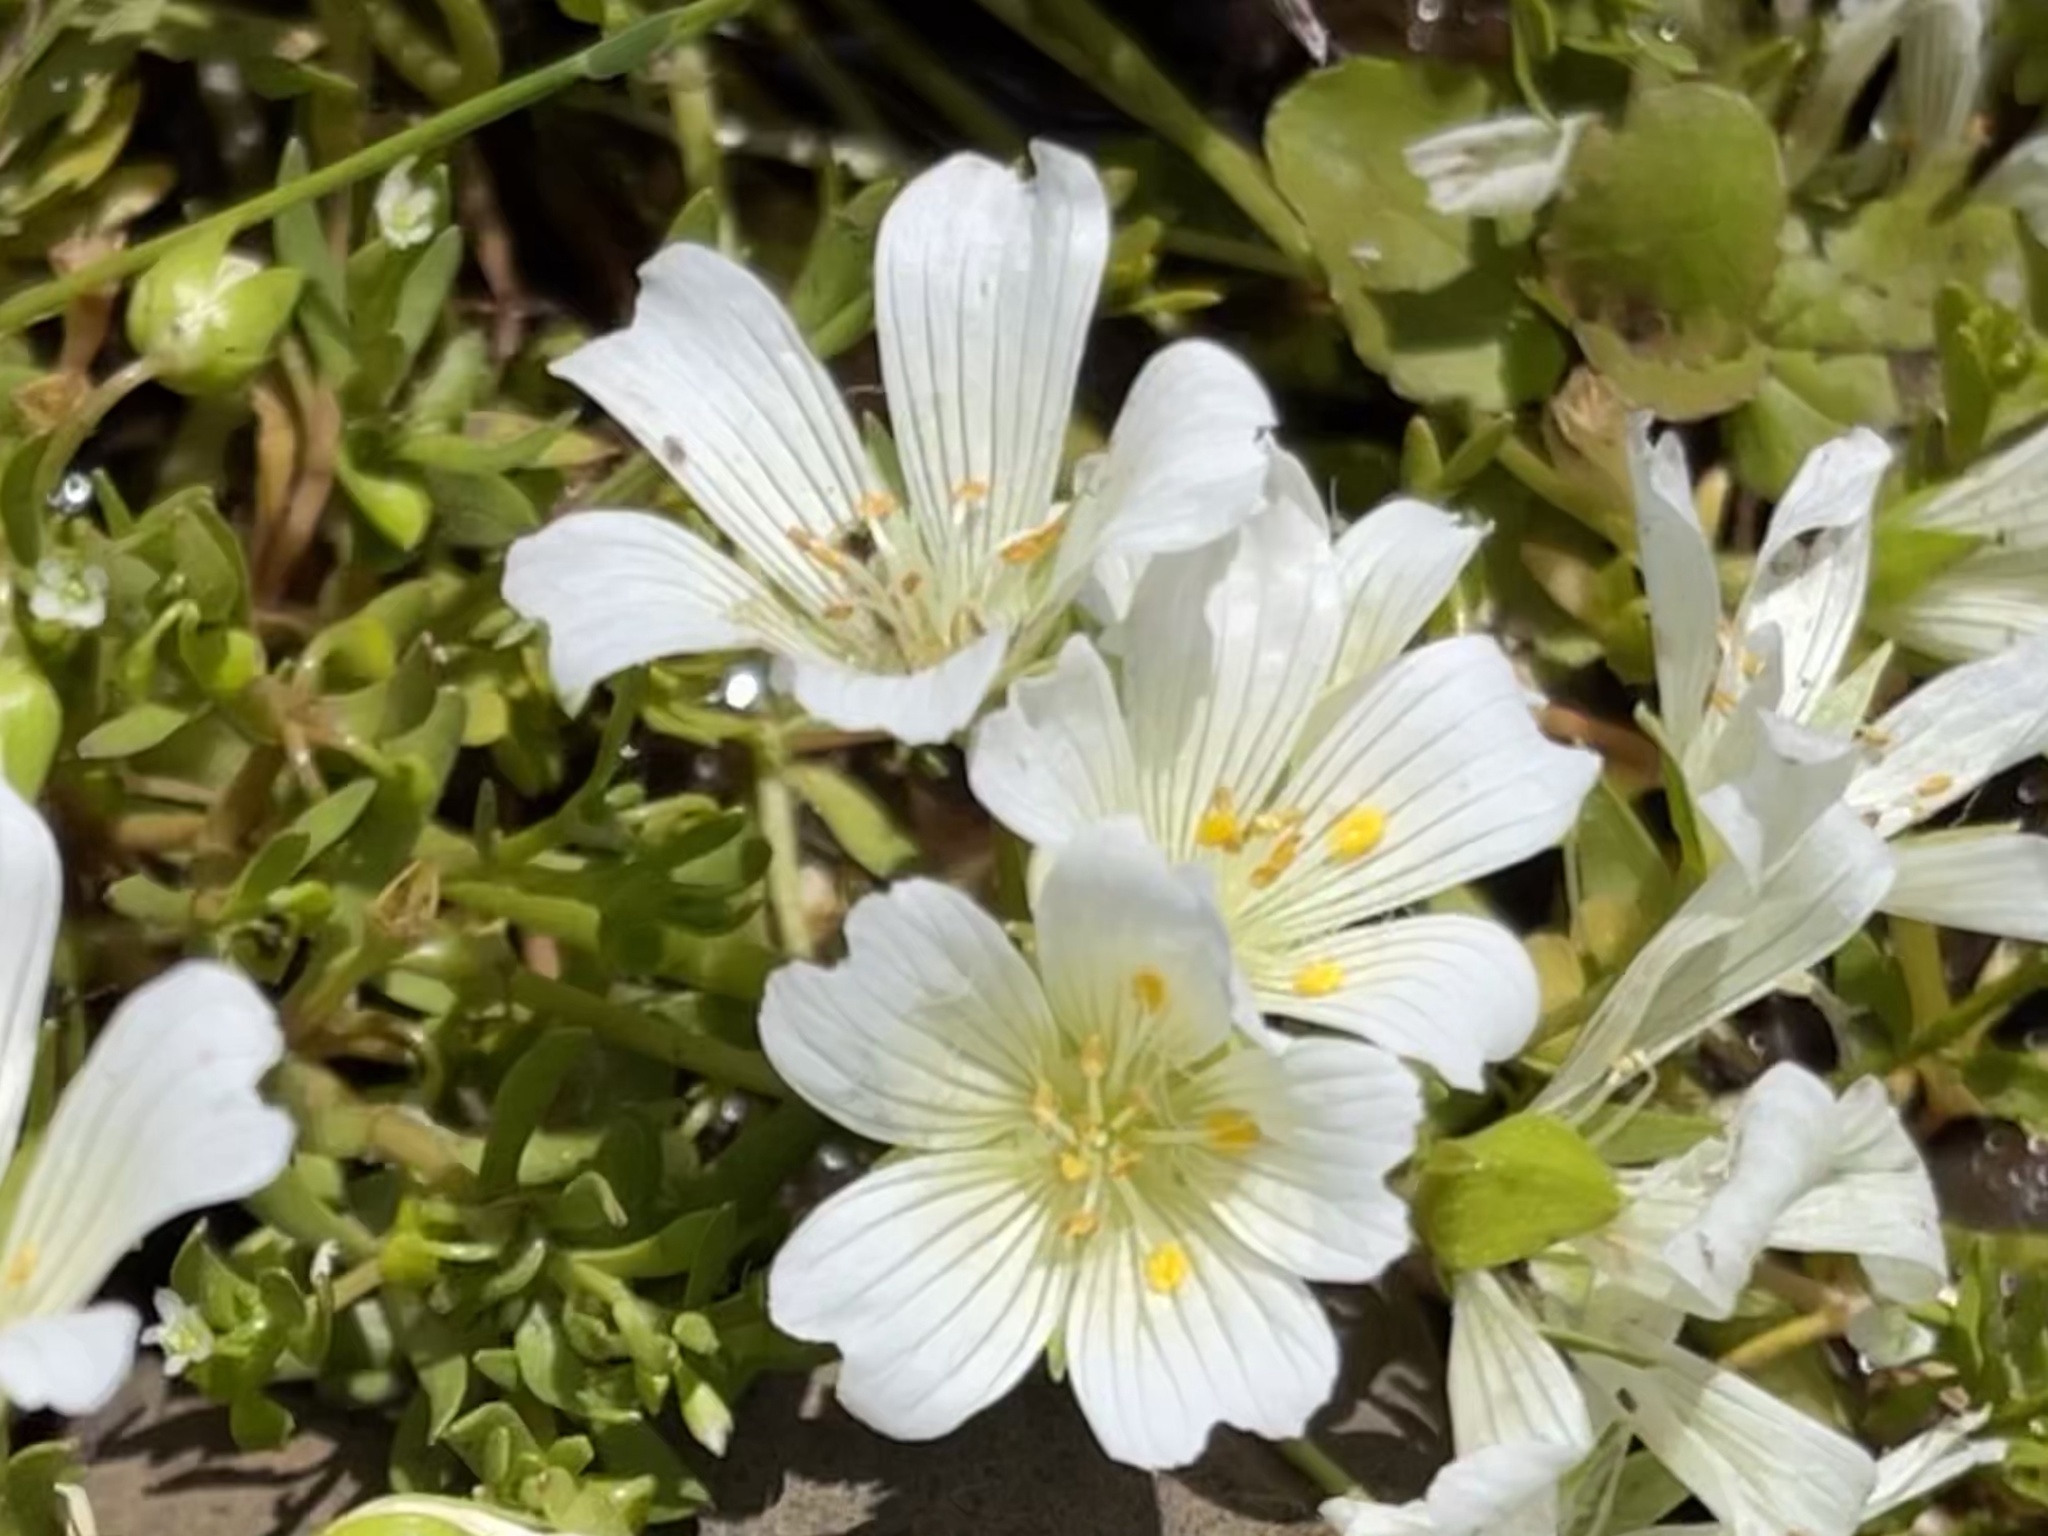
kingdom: Plantae
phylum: Tracheophyta
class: Magnoliopsida
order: Brassicales
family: Limnanthaceae
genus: Limnanthes
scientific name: Limnanthes douglasii
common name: Meadow-foam
